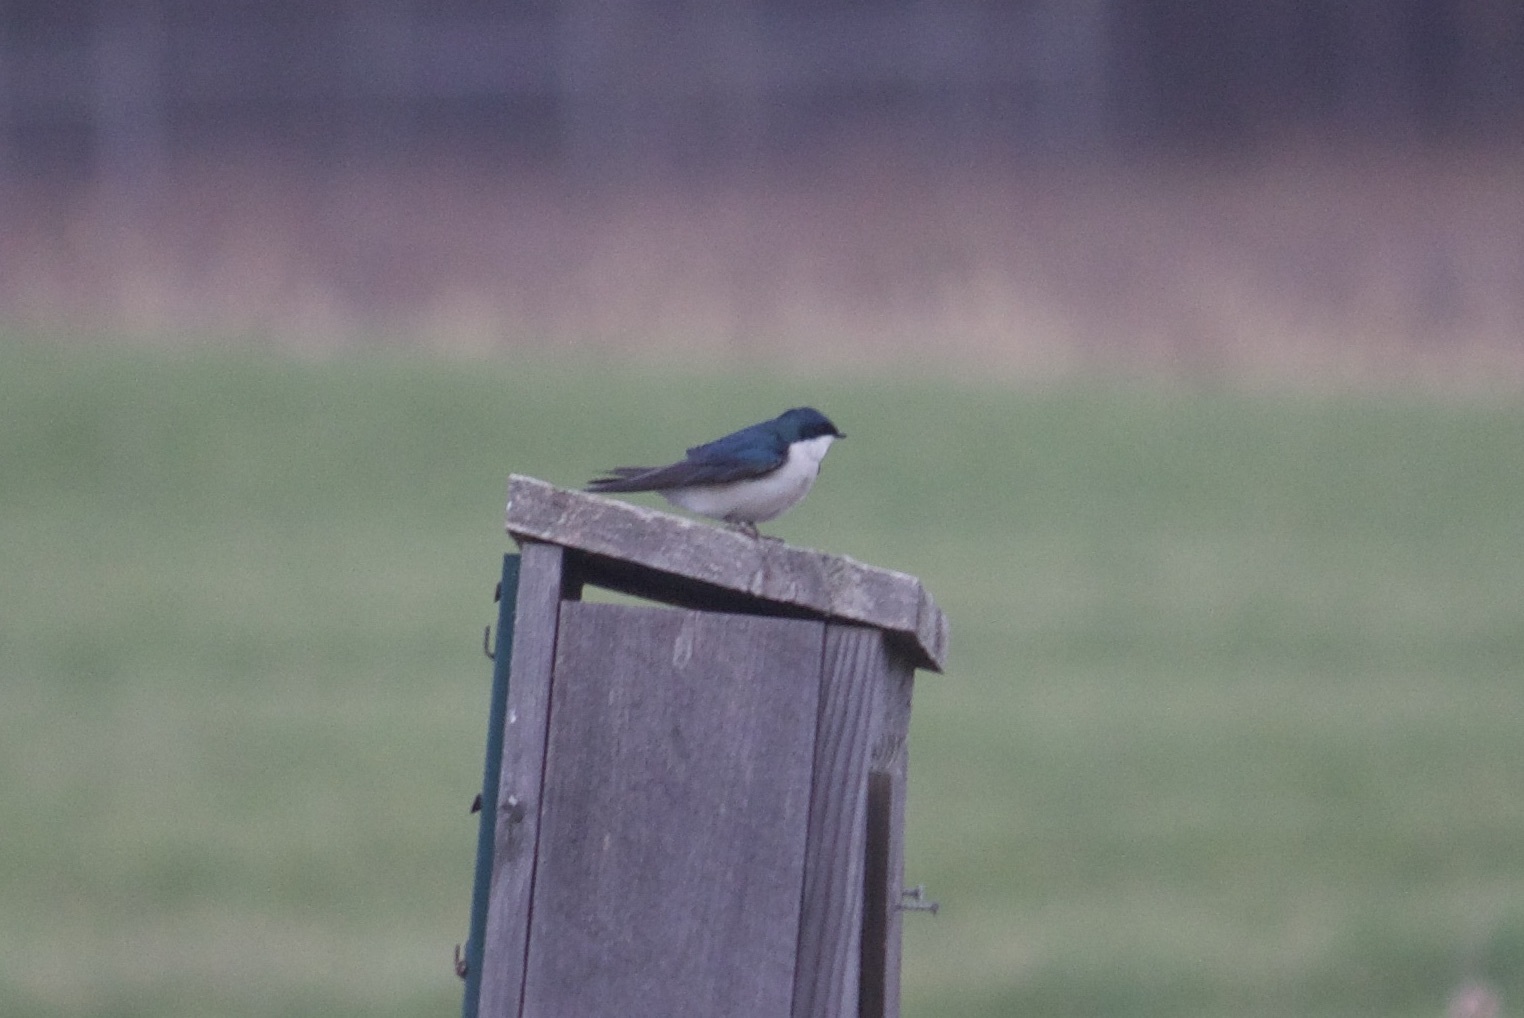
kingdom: Animalia
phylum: Chordata
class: Aves
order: Passeriformes
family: Hirundinidae
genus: Tachycineta
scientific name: Tachycineta bicolor
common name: Tree swallow
